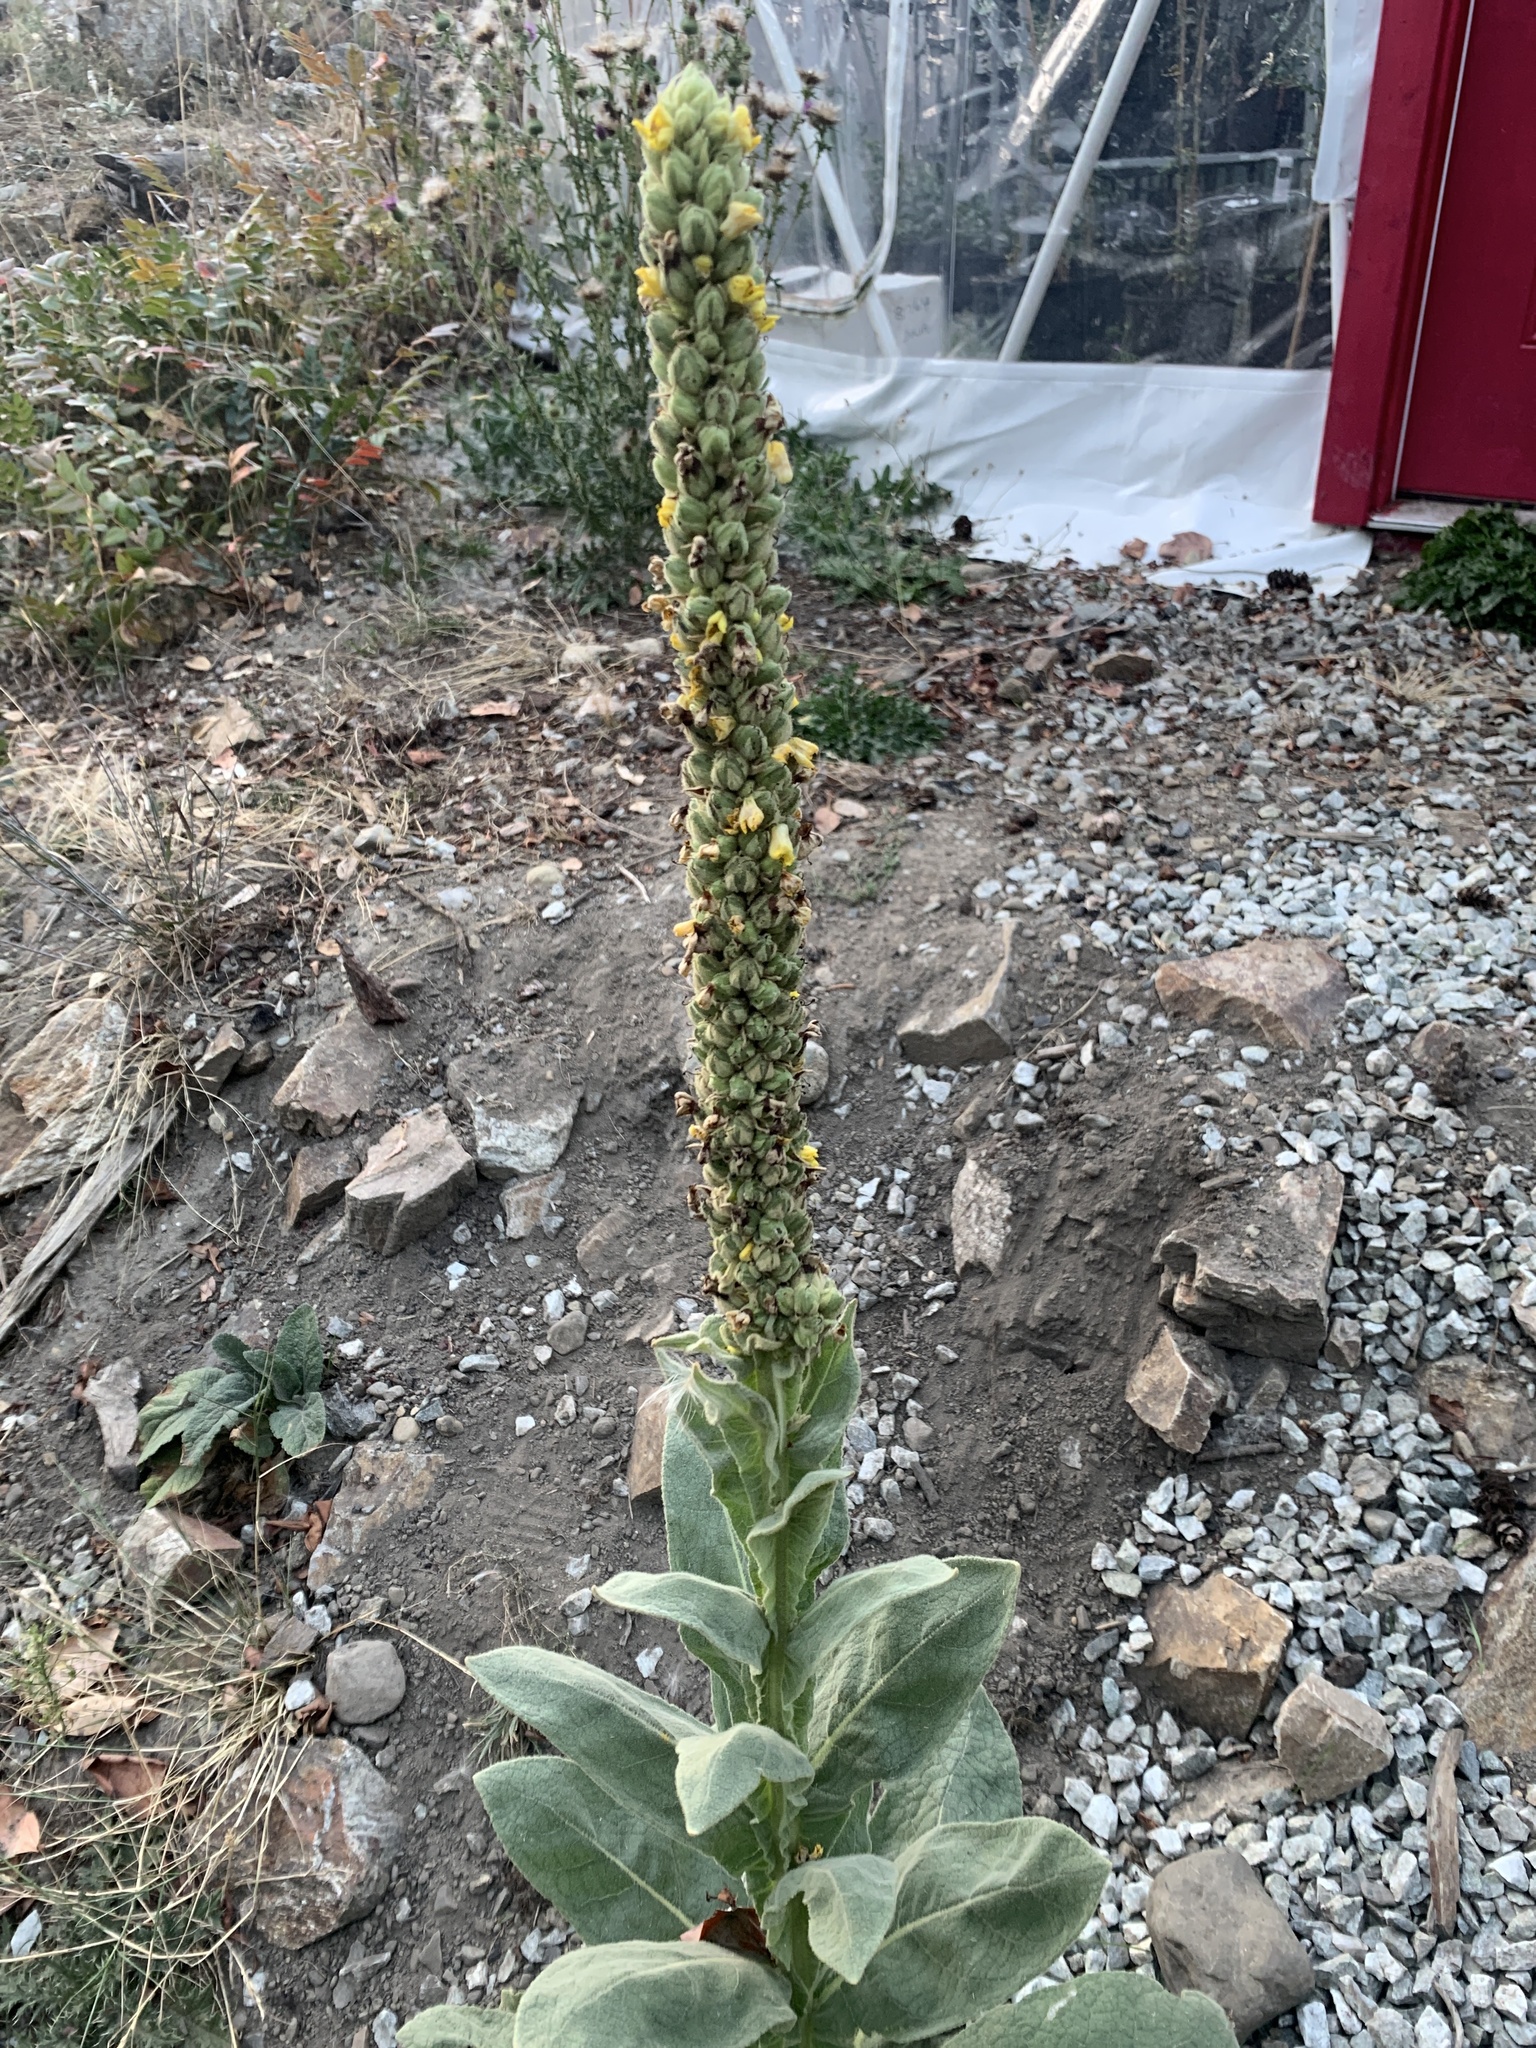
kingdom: Plantae
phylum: Tracheophyta
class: Magnoliopsida
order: Lamiales
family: Scrophulariaceae
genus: Verbascum
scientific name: Verbascum thapsus
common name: Common mullein
